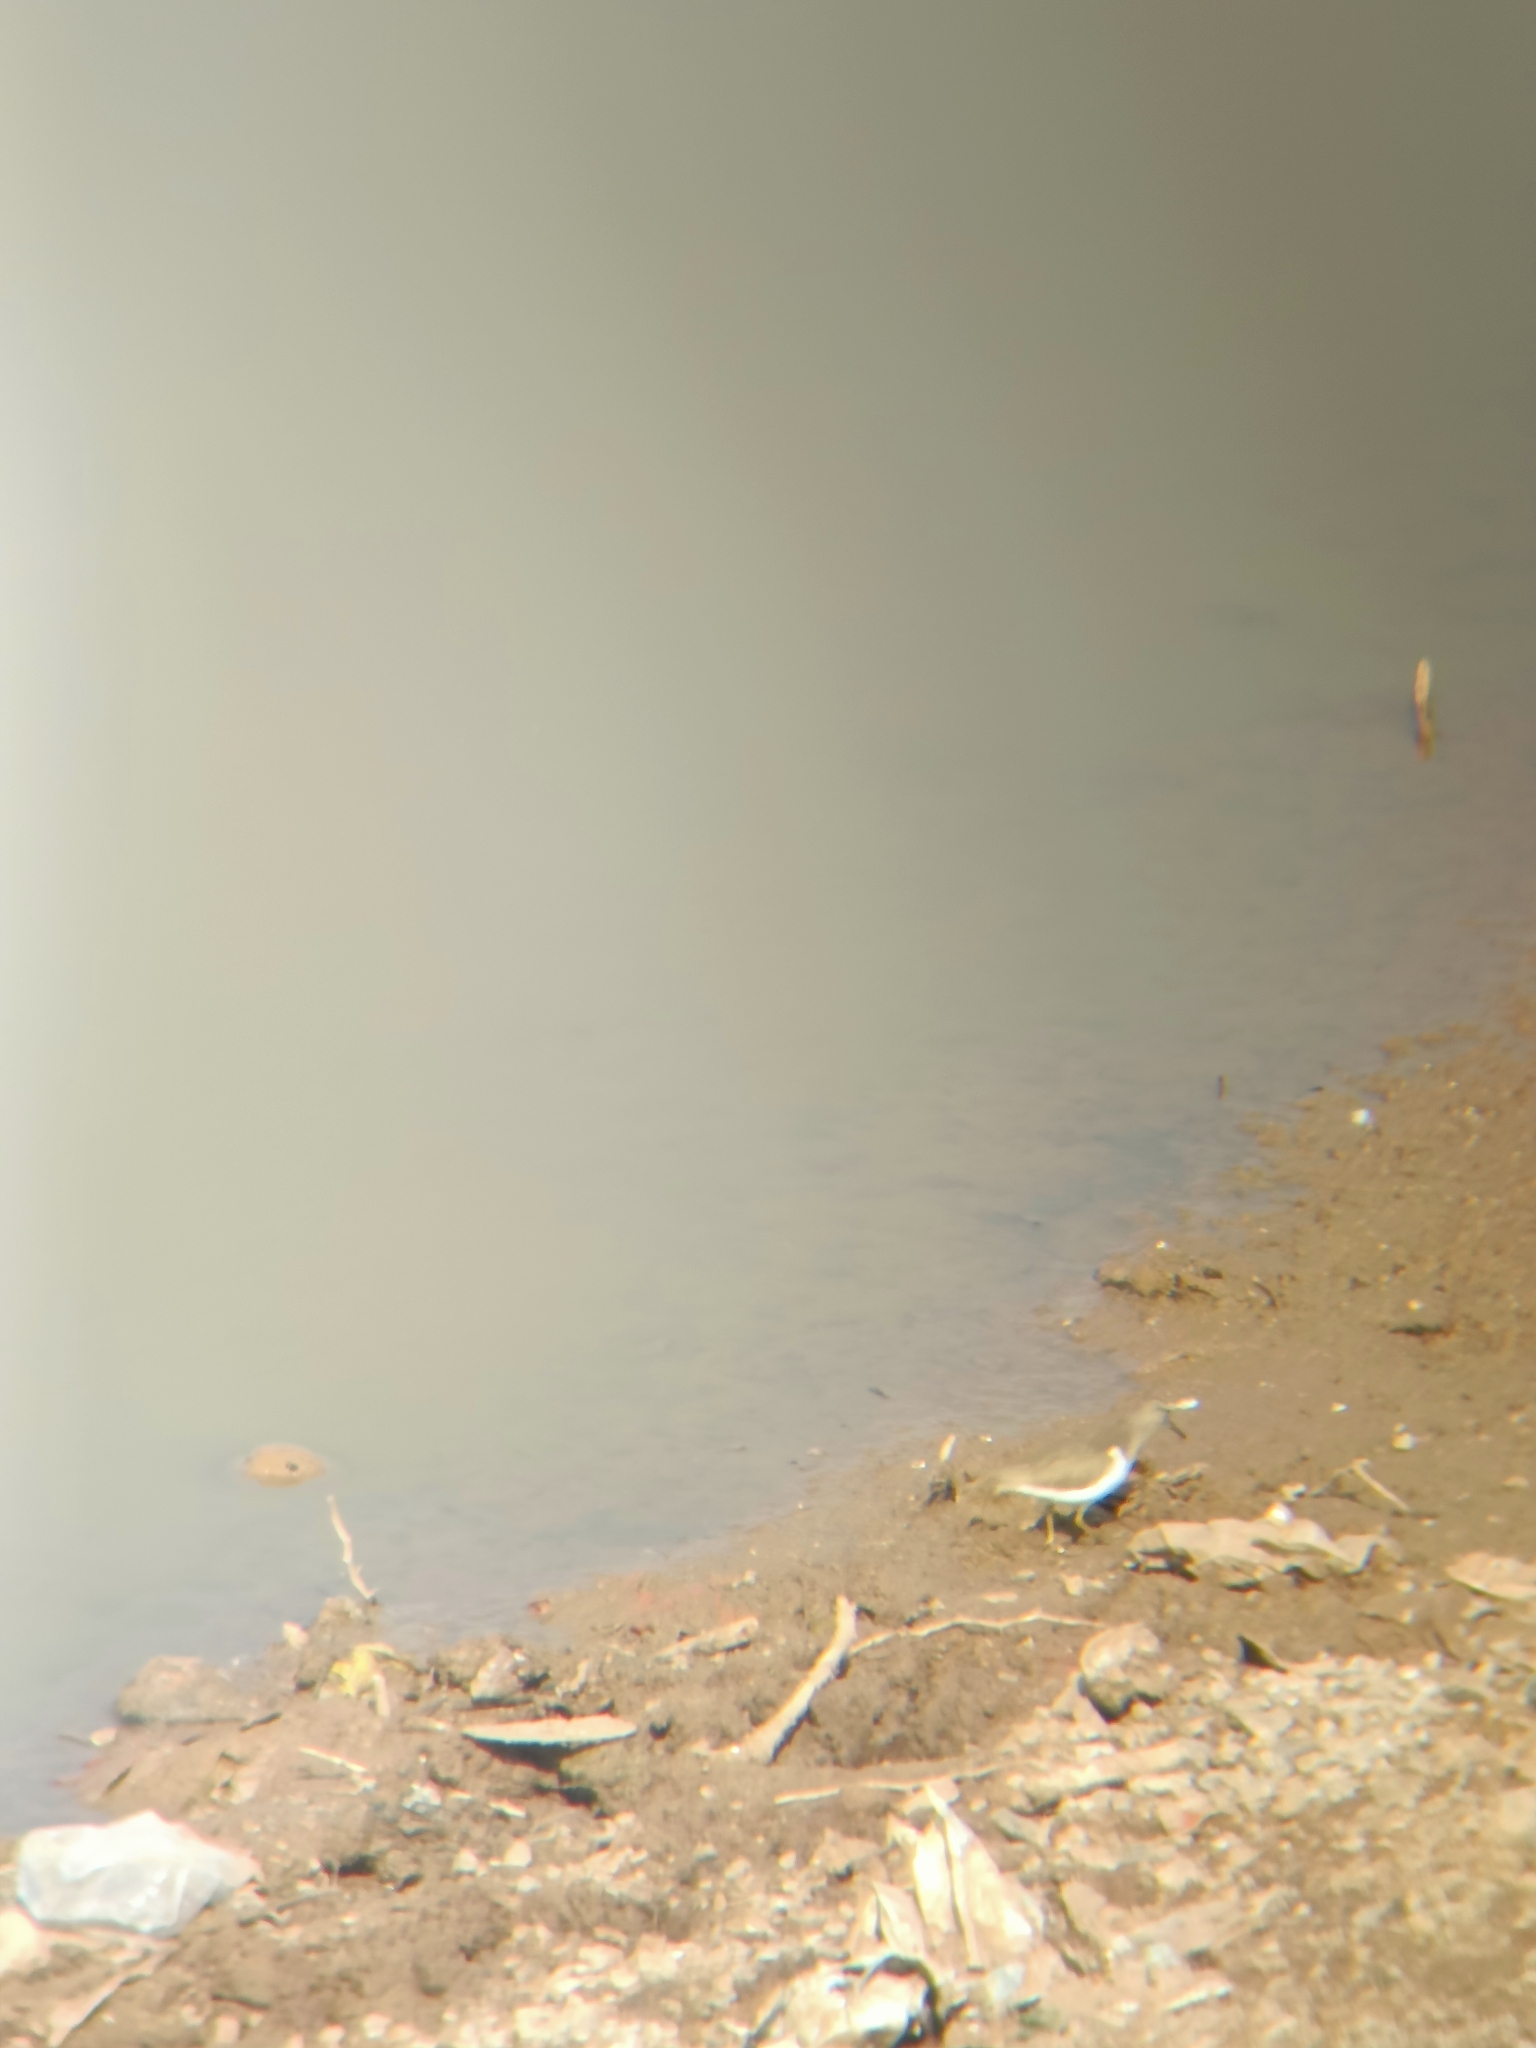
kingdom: Animalia
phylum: Chordata
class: Aves
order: Charadriiformes
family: Scolopacidae
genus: Actitis
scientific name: Actitis hypoleucos
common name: Common sandpiper
